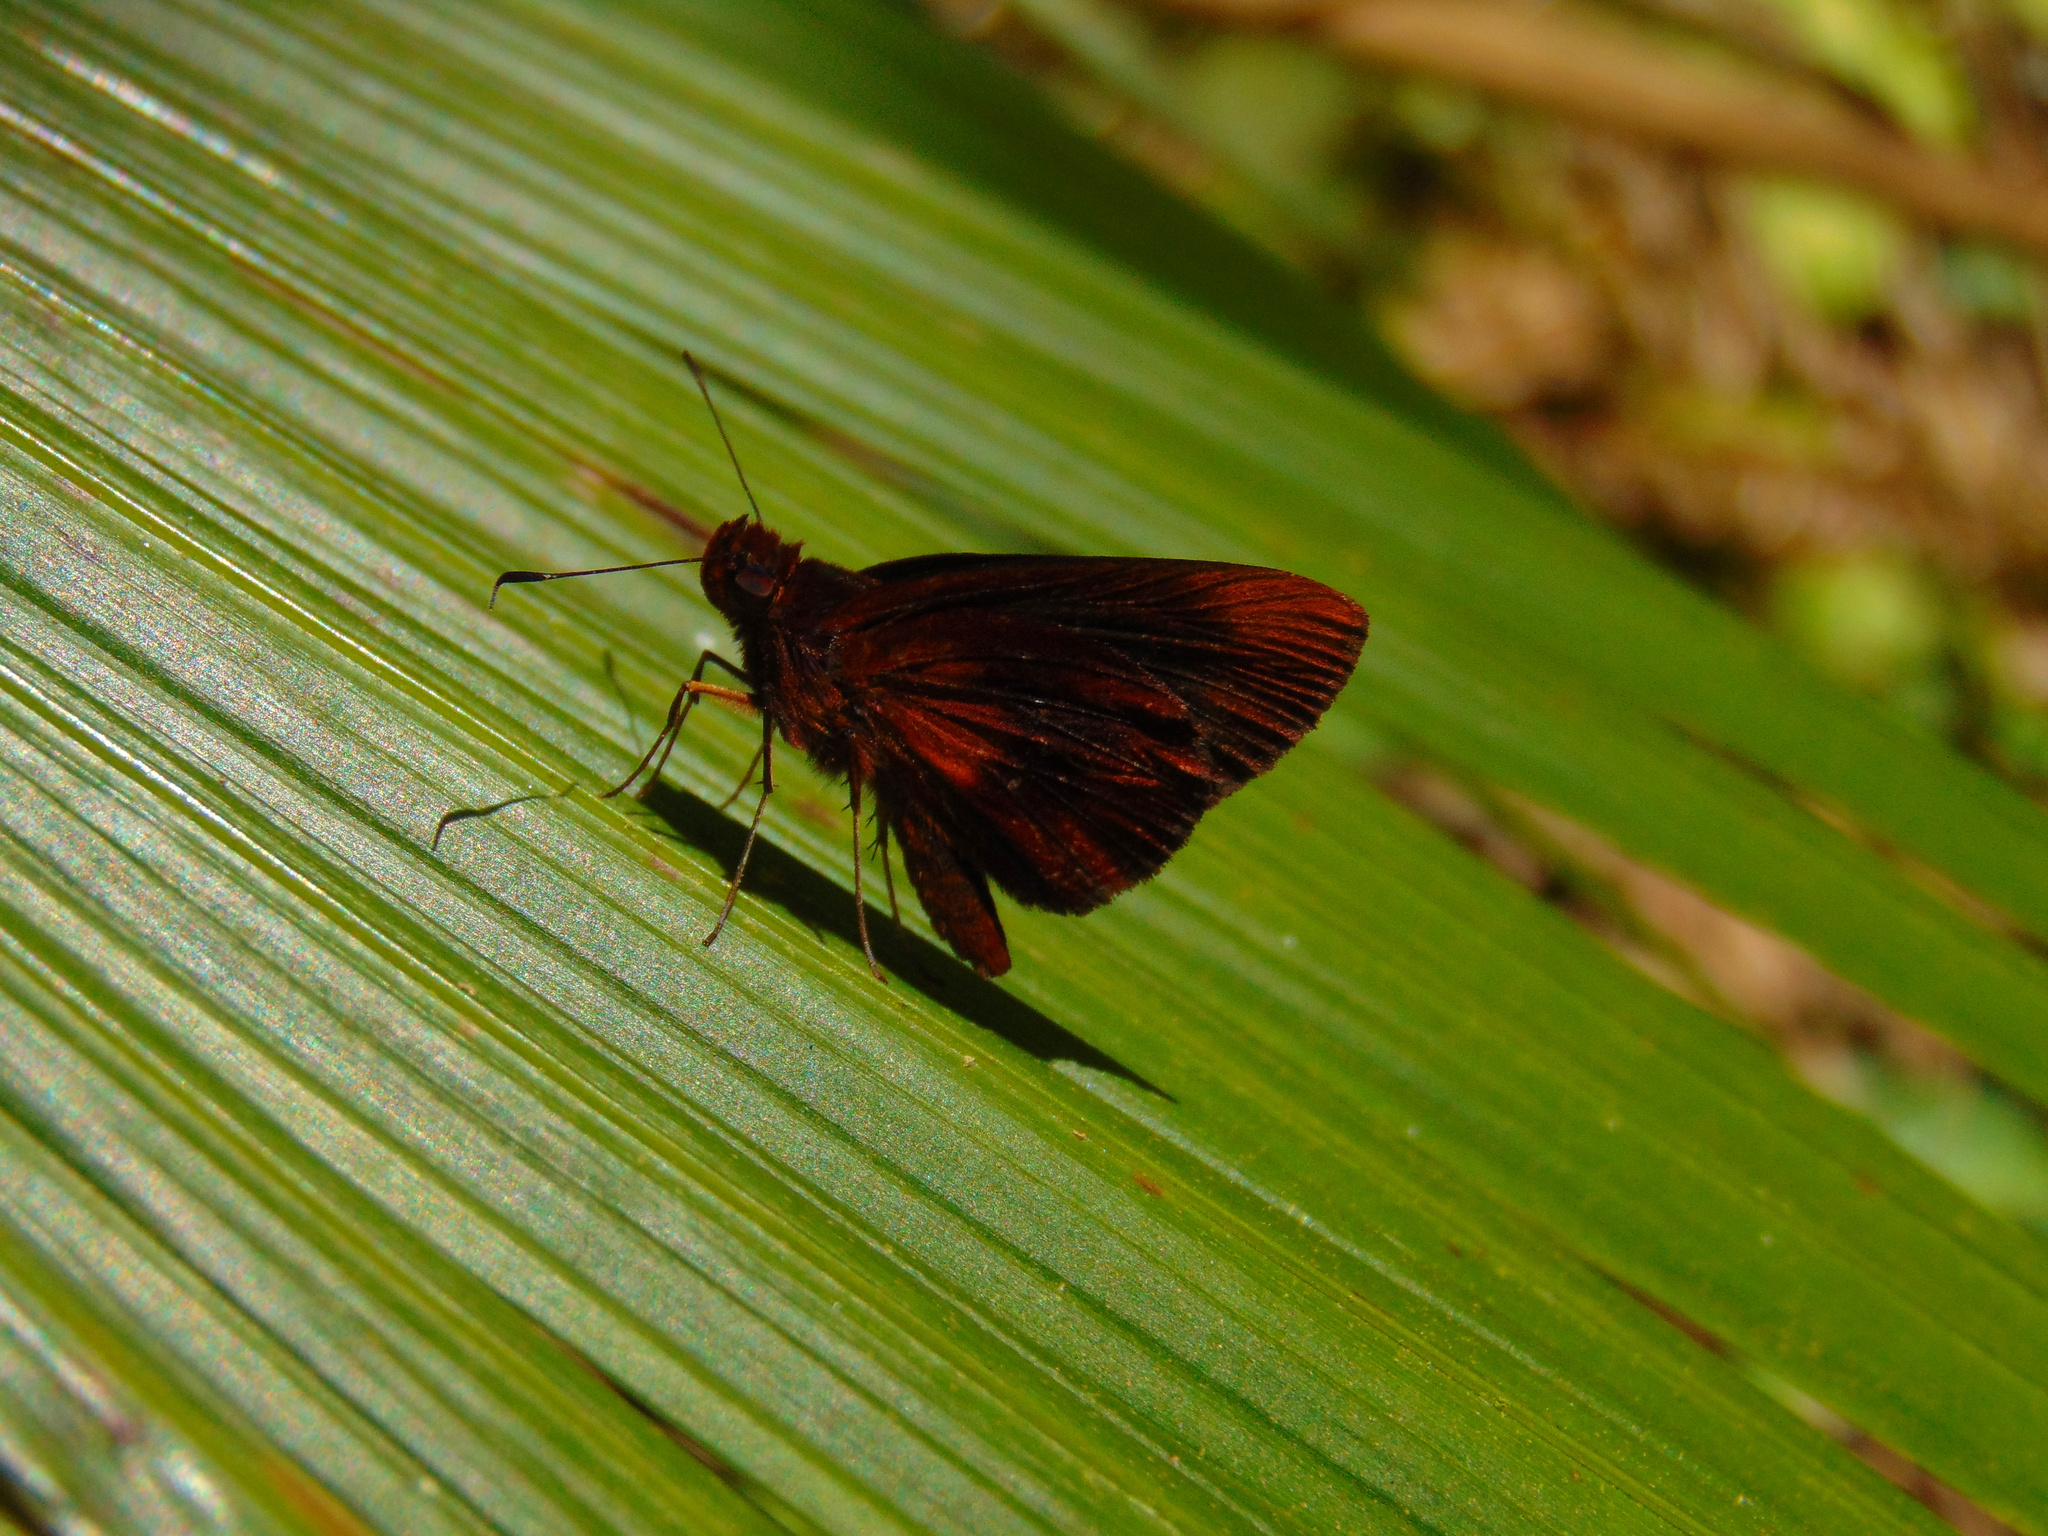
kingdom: Animalia
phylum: Arthropoda
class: Insecta
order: Lepidoptera
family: Hesperiidae
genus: Miltomiges
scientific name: Miltomiges cinnamomea
